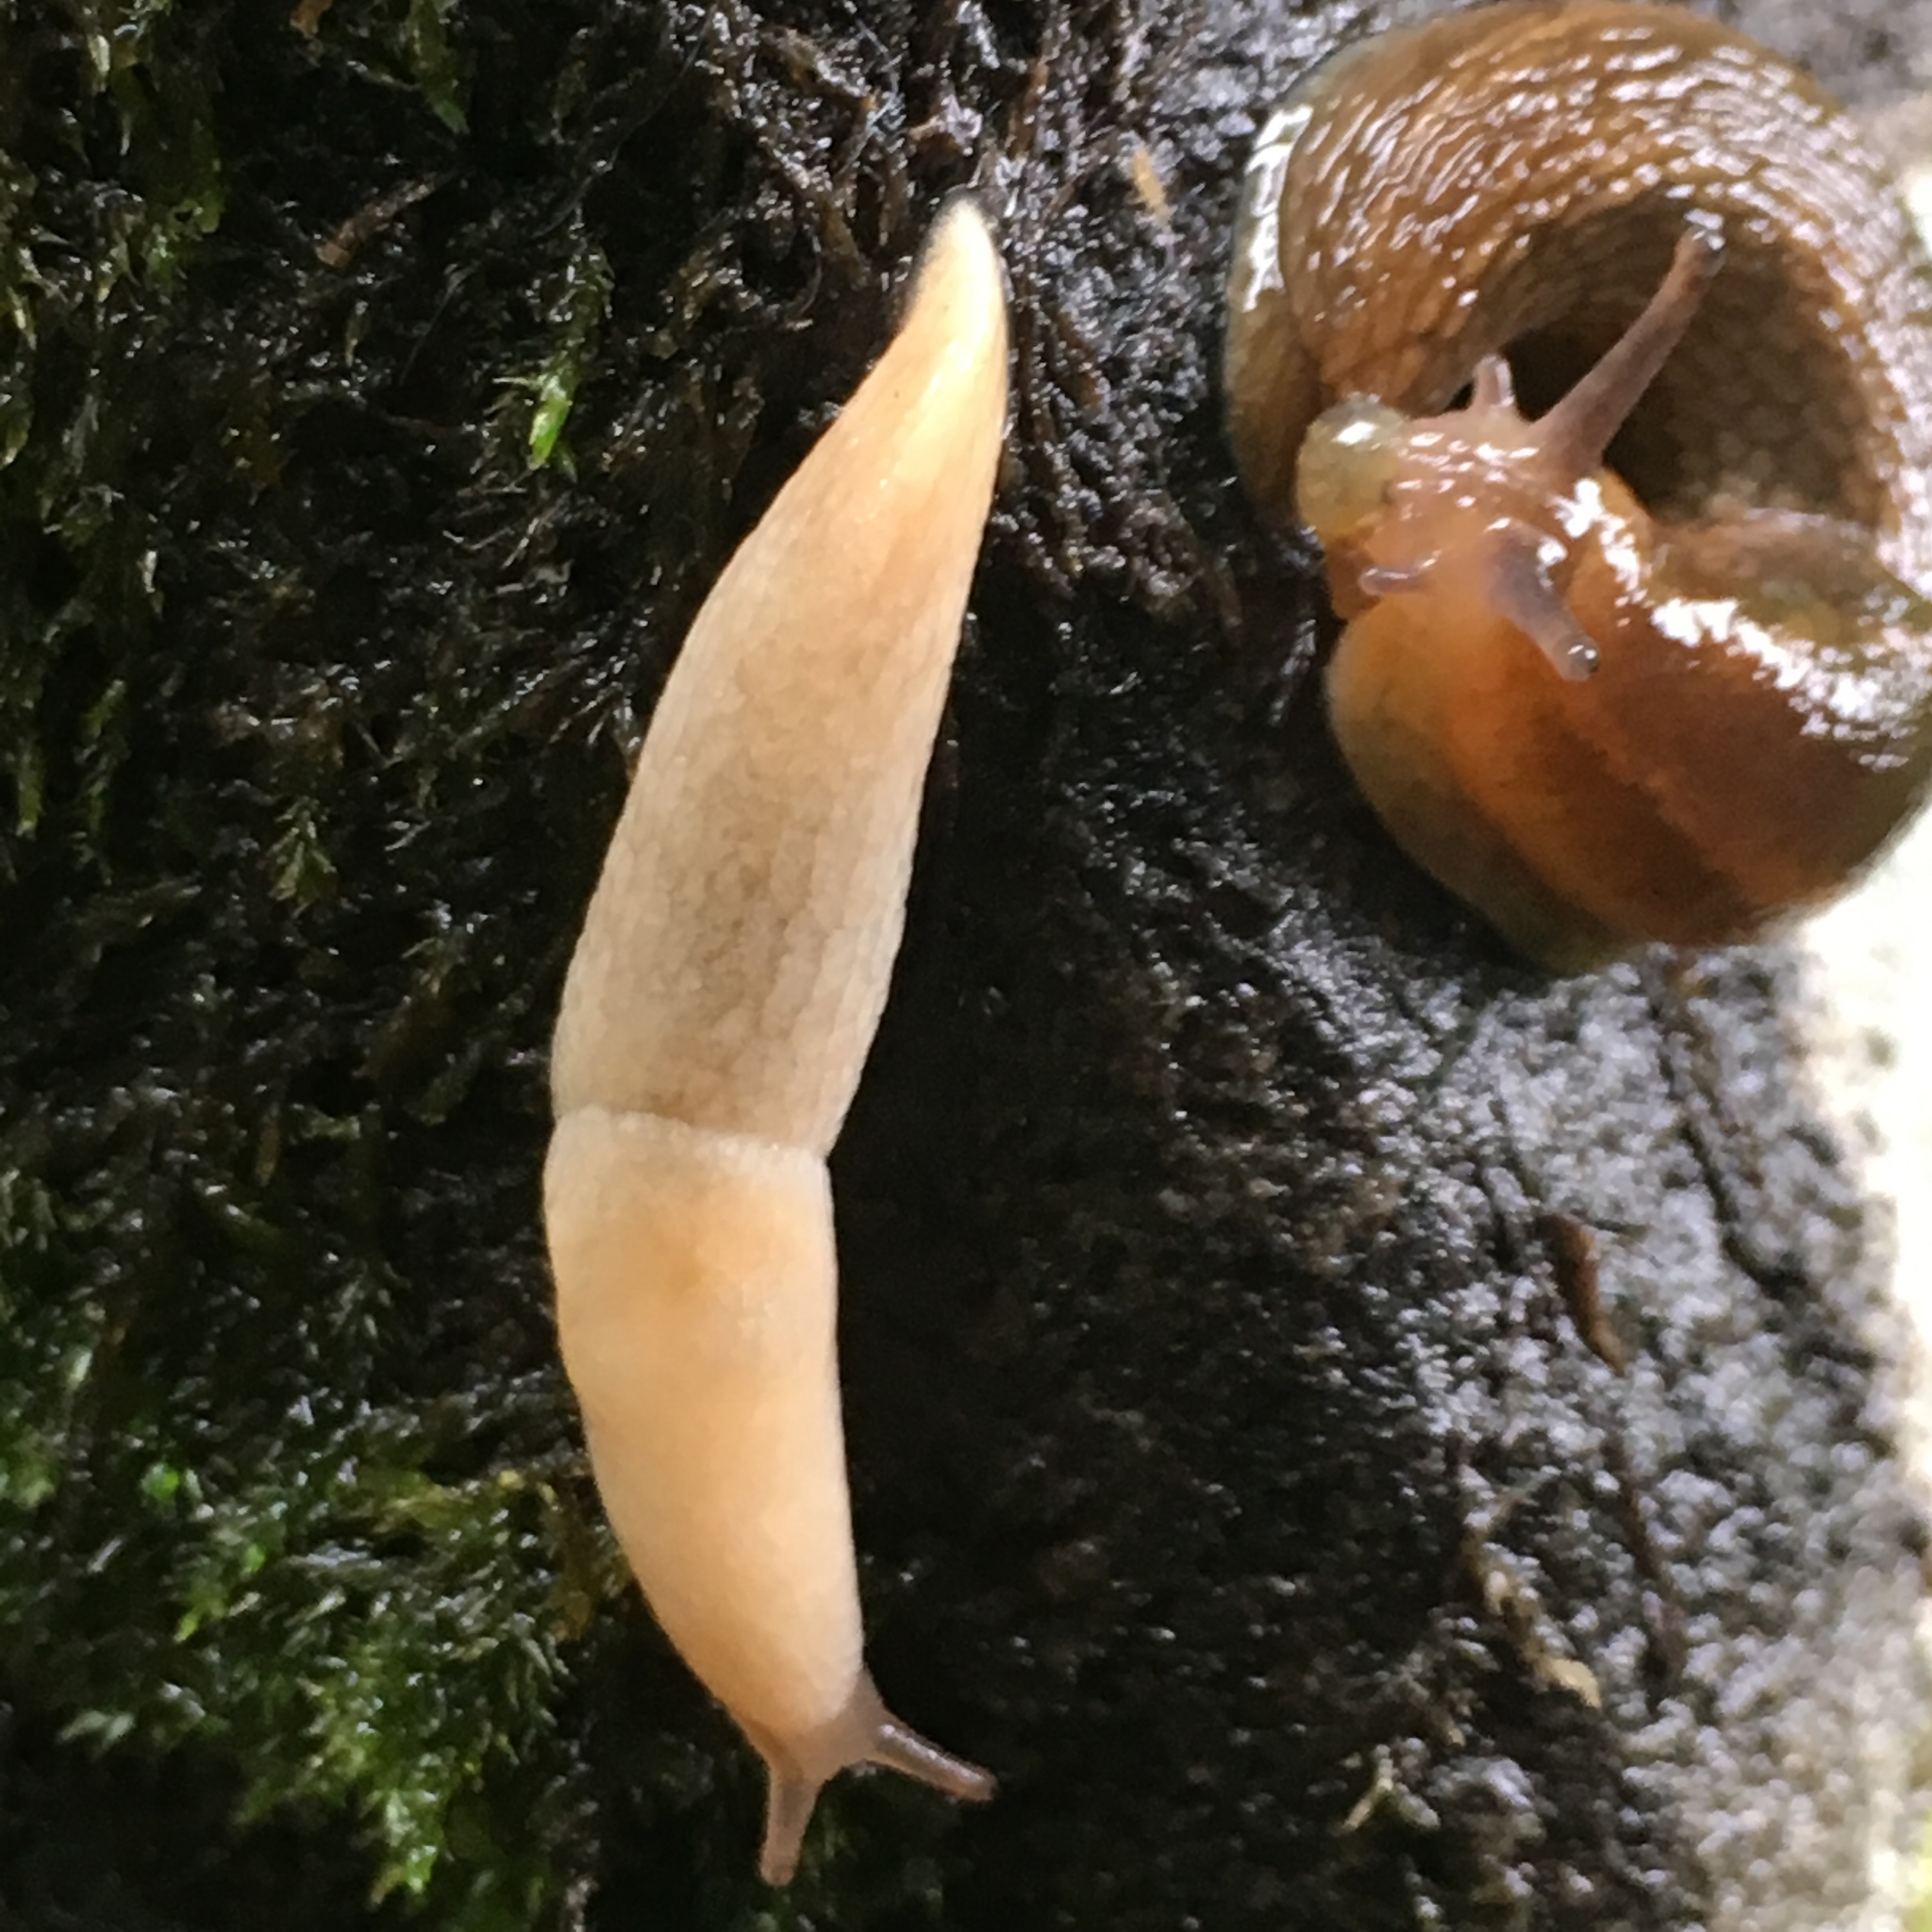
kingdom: Animalia
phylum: Mollusca
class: Gastropoda
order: Stylommatophora
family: Agriolimacidae
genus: Deroceras
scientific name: Deroceras reticulatum
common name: Gray field slug
